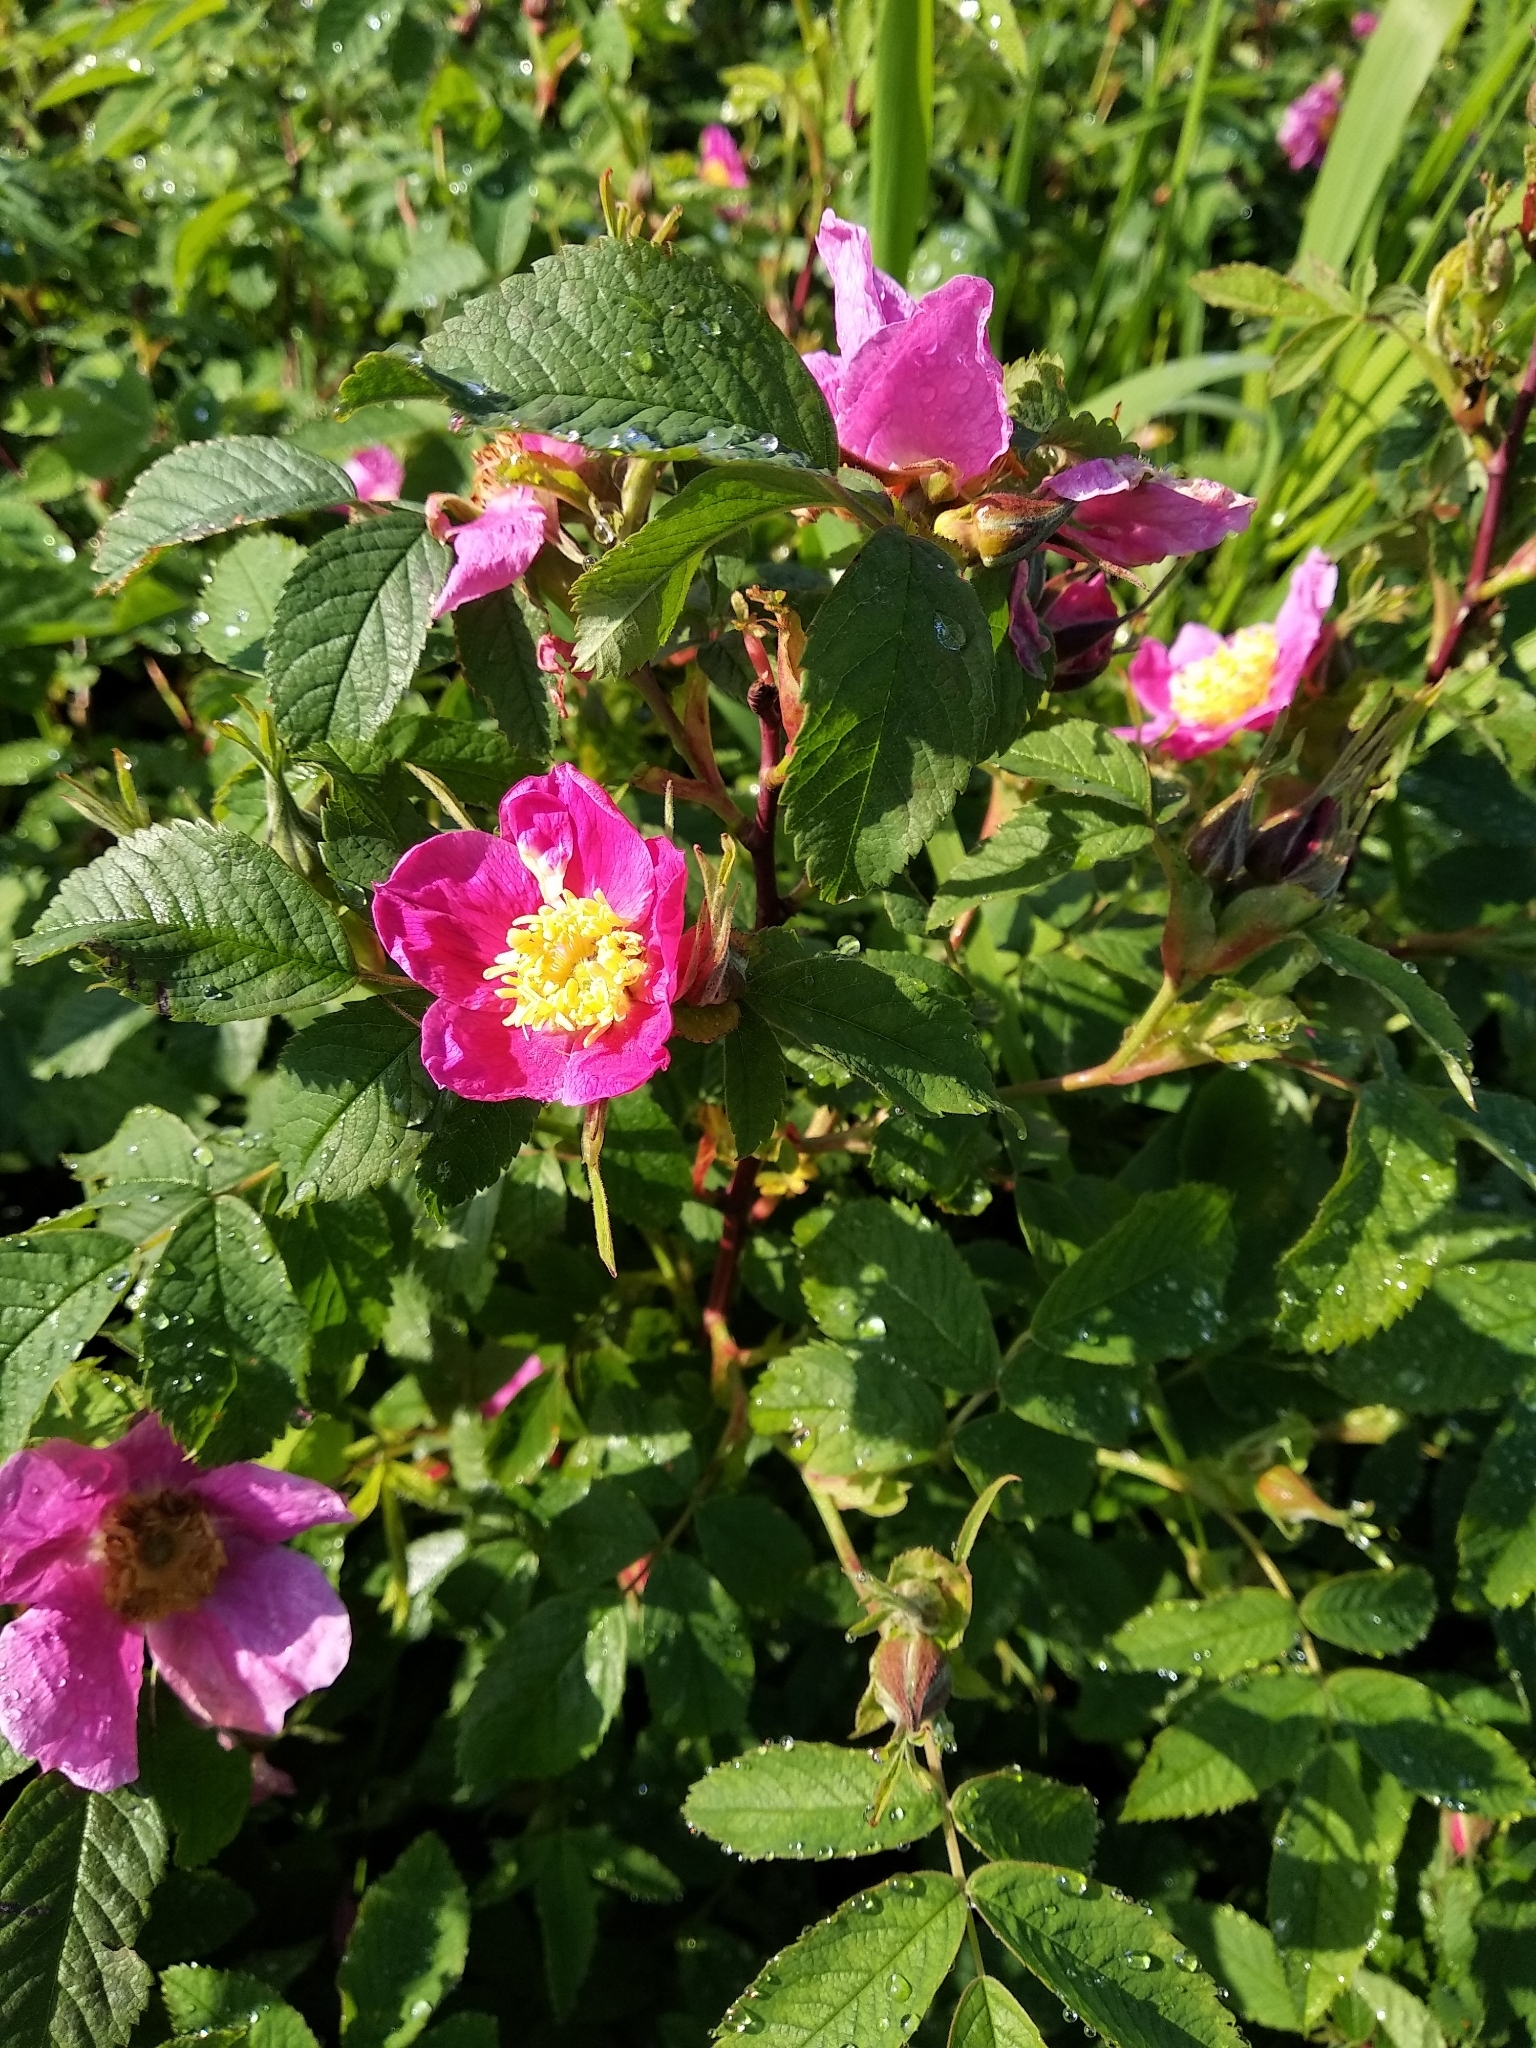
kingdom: Plantae
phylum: Tracheophyta
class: Magnoliopsida
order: Rosales
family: Rosaceae
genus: Rosa
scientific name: Rosa
